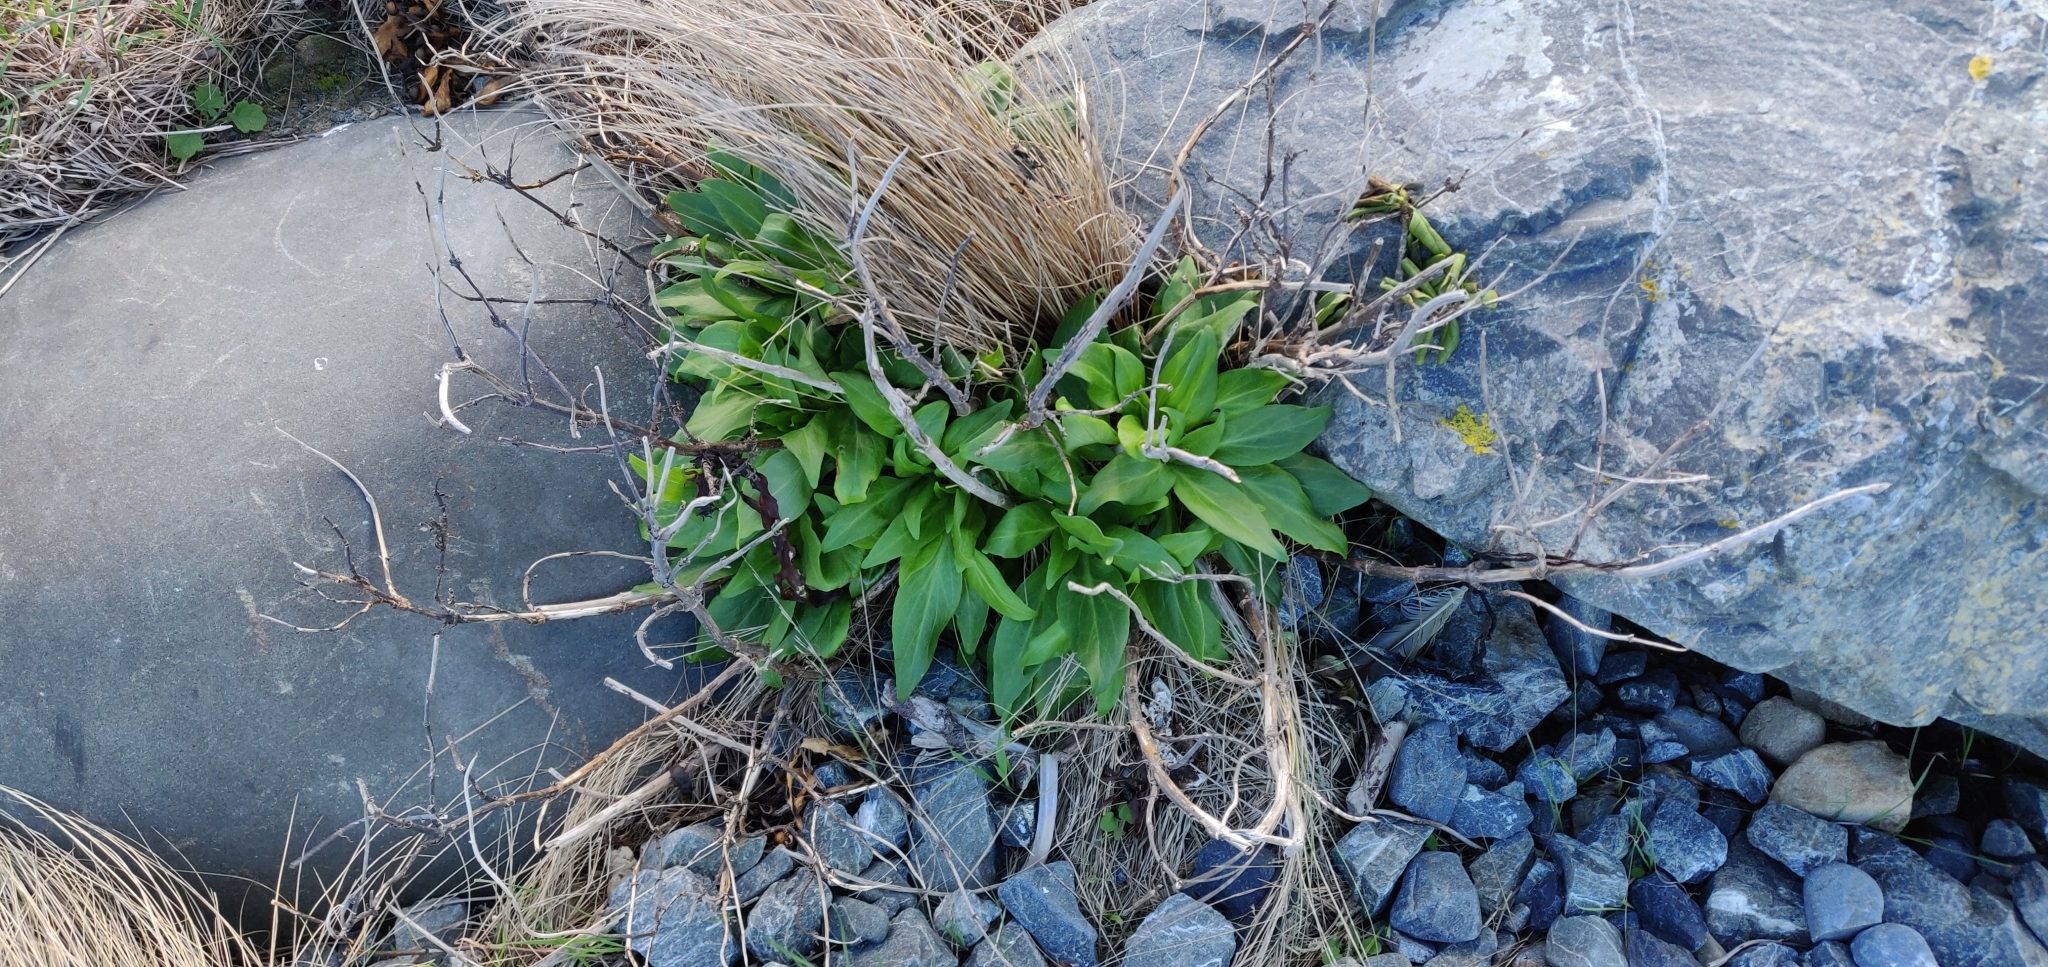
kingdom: Plantae
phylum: Tracheophyta
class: Magnoliopsida
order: Dipsacales
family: Caprifoliaceae
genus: Centranthus
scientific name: Centranthus ruber
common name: Red valerian
